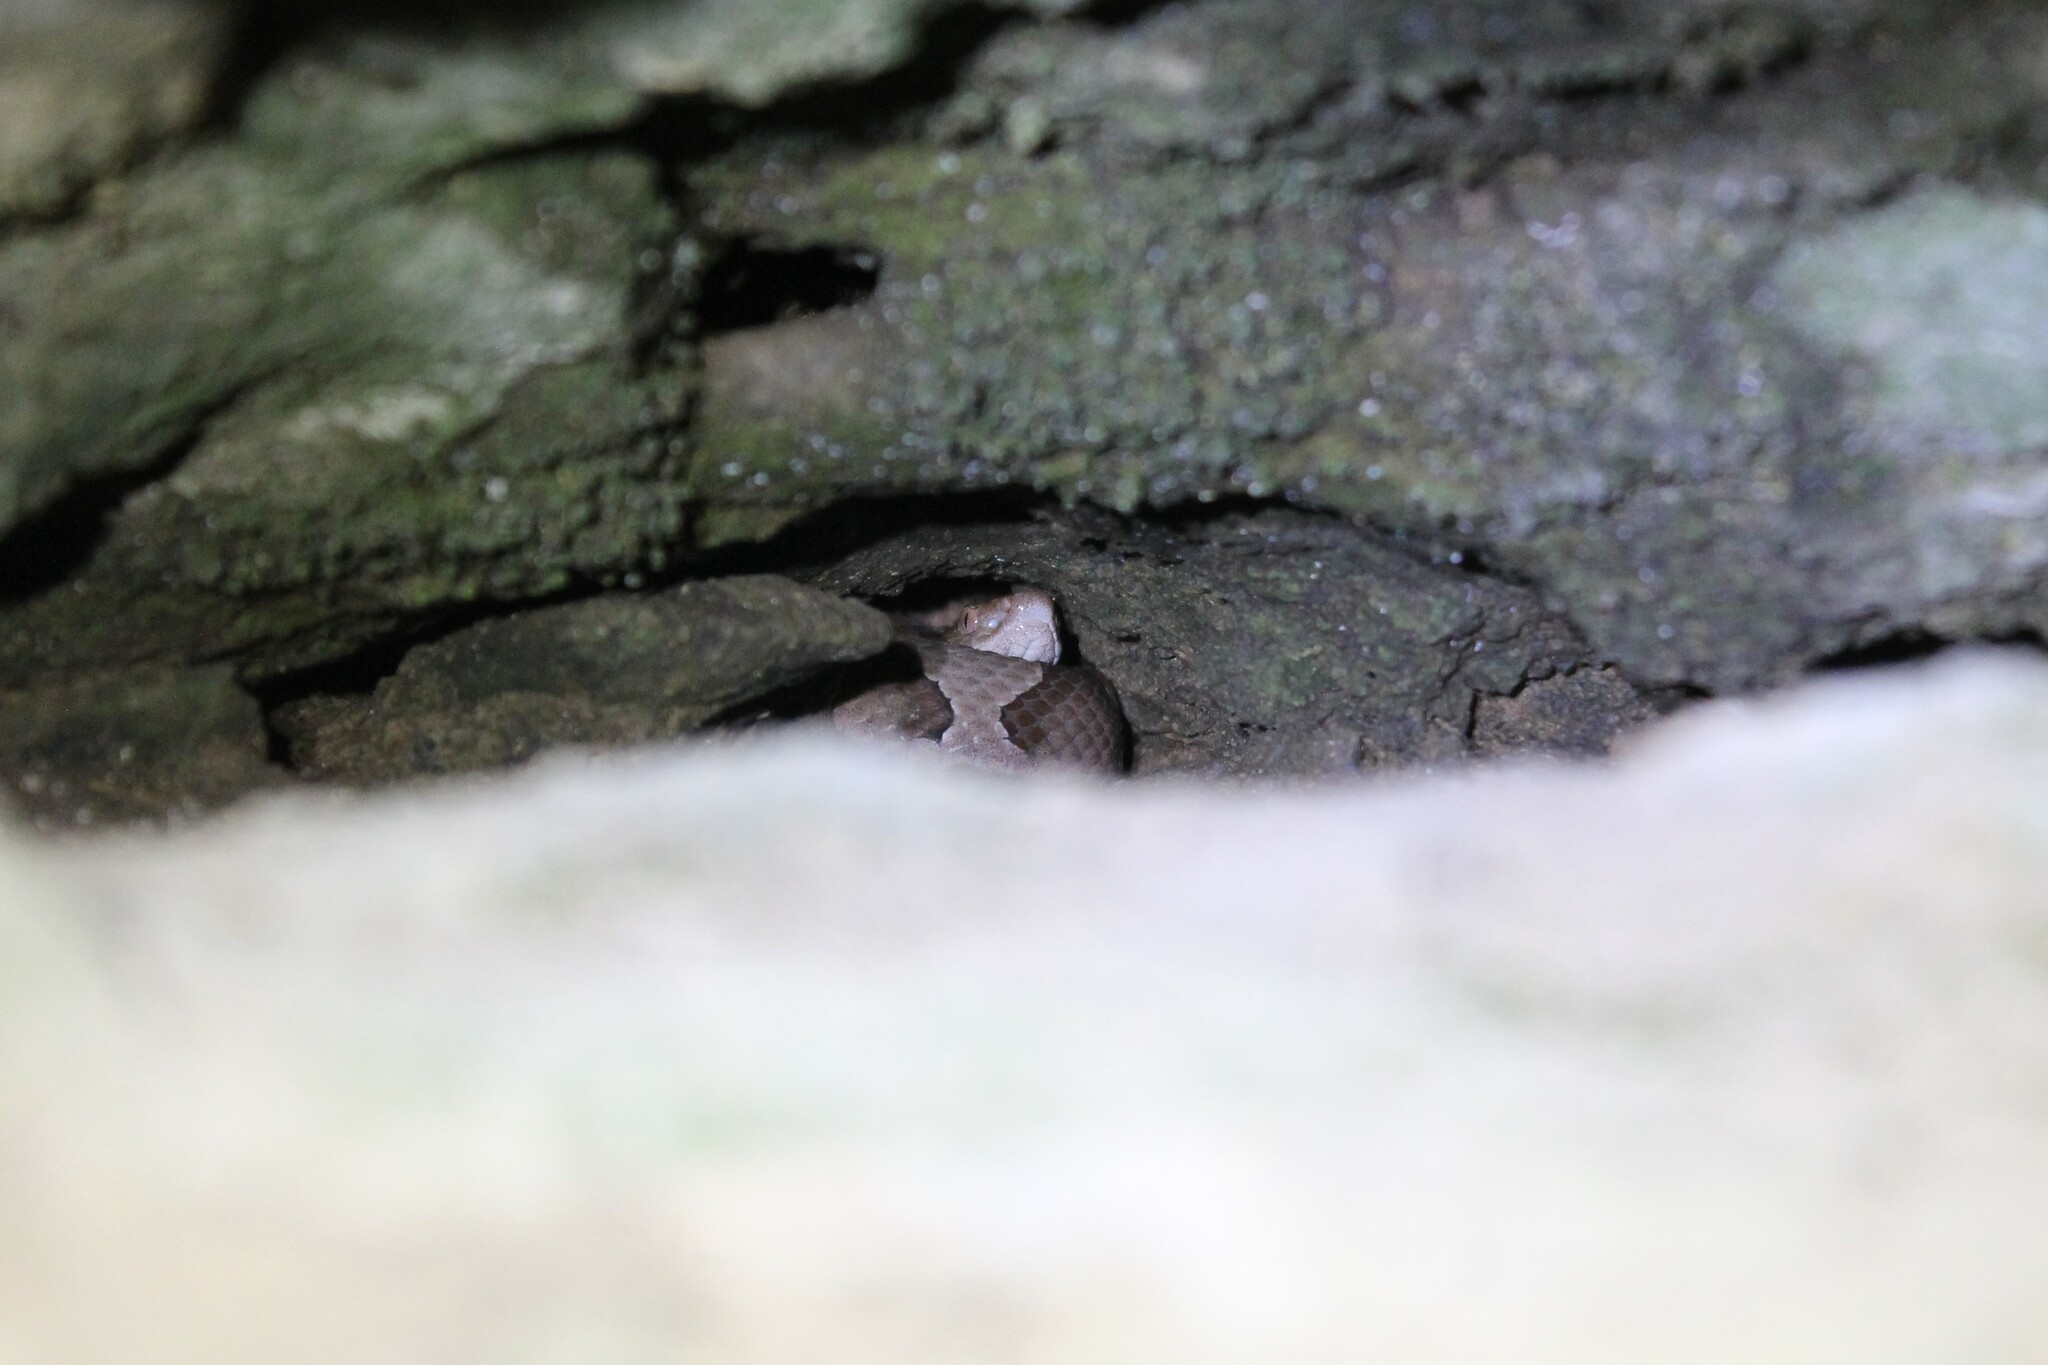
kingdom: Animalia
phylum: Chordata
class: Squamata
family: Viperidae
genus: Agkistrodon
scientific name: Agkistrodon contortrix
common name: Northern copperhead
